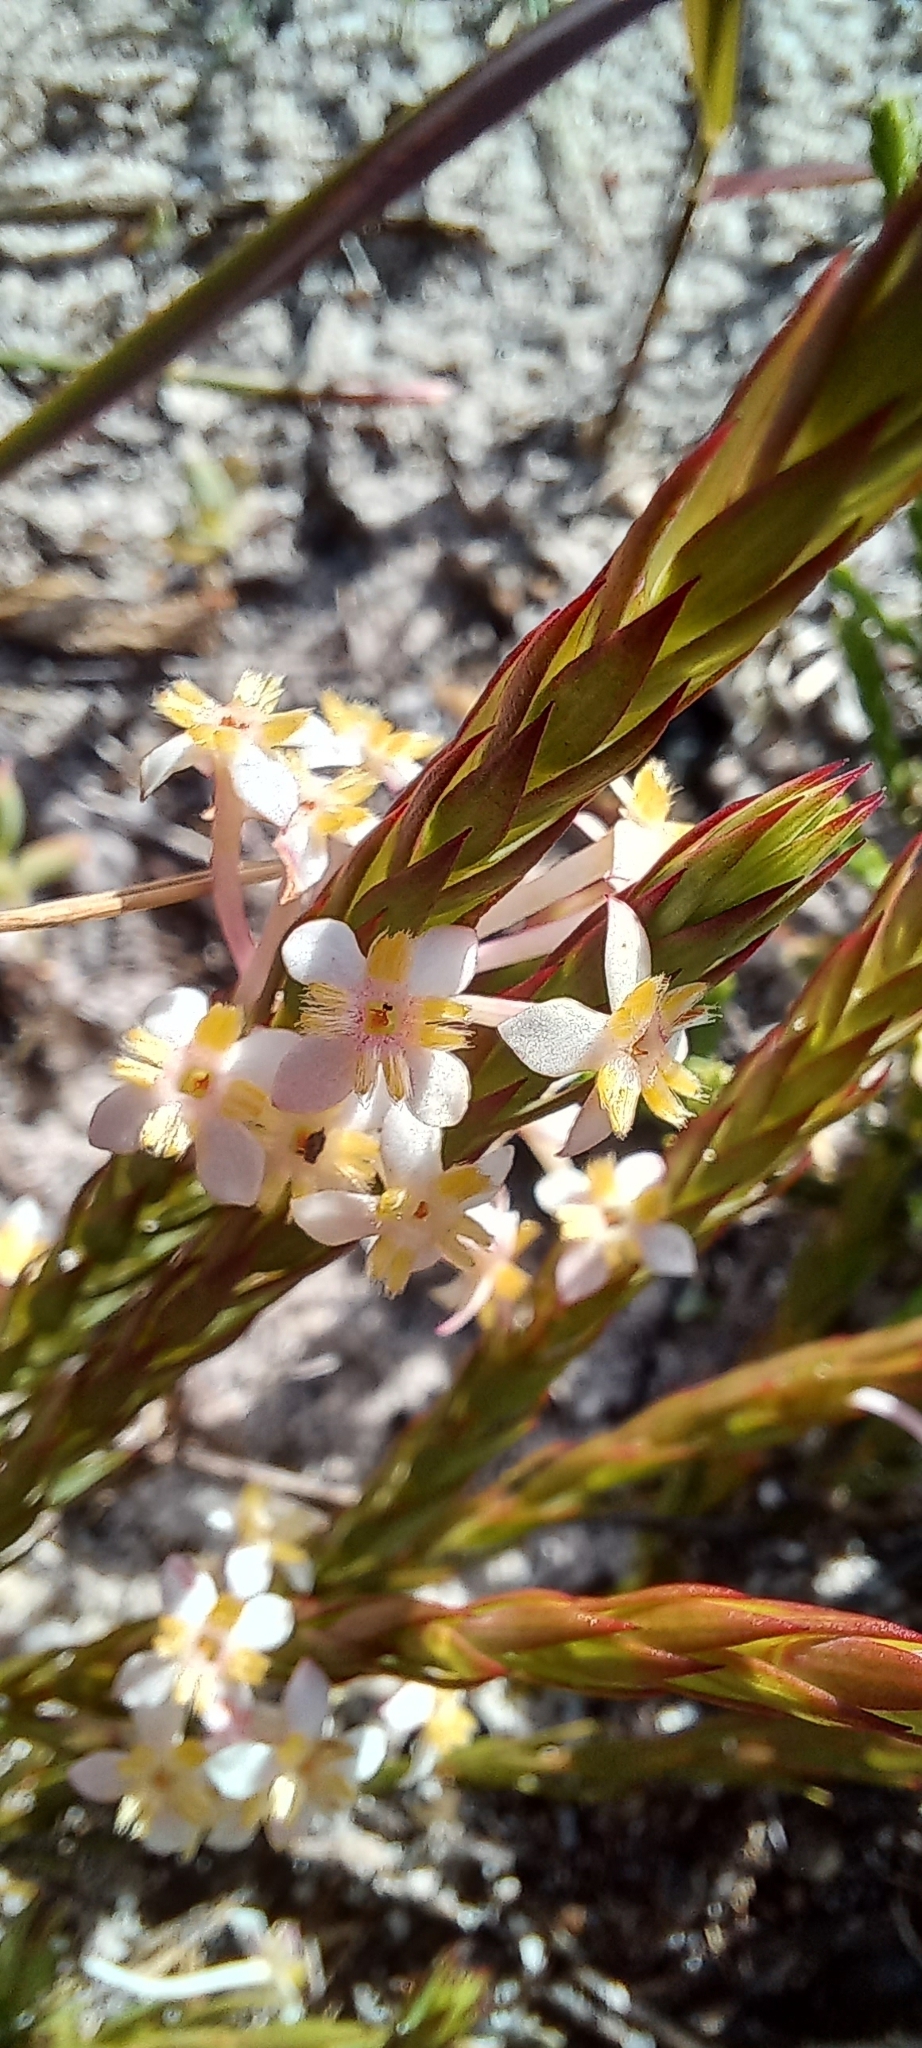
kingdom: Plantae
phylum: Tracheophyta
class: Magnoliopsida
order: Malvales
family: Thymelaeaceae
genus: Struthiola
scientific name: Struthiola ciliata
